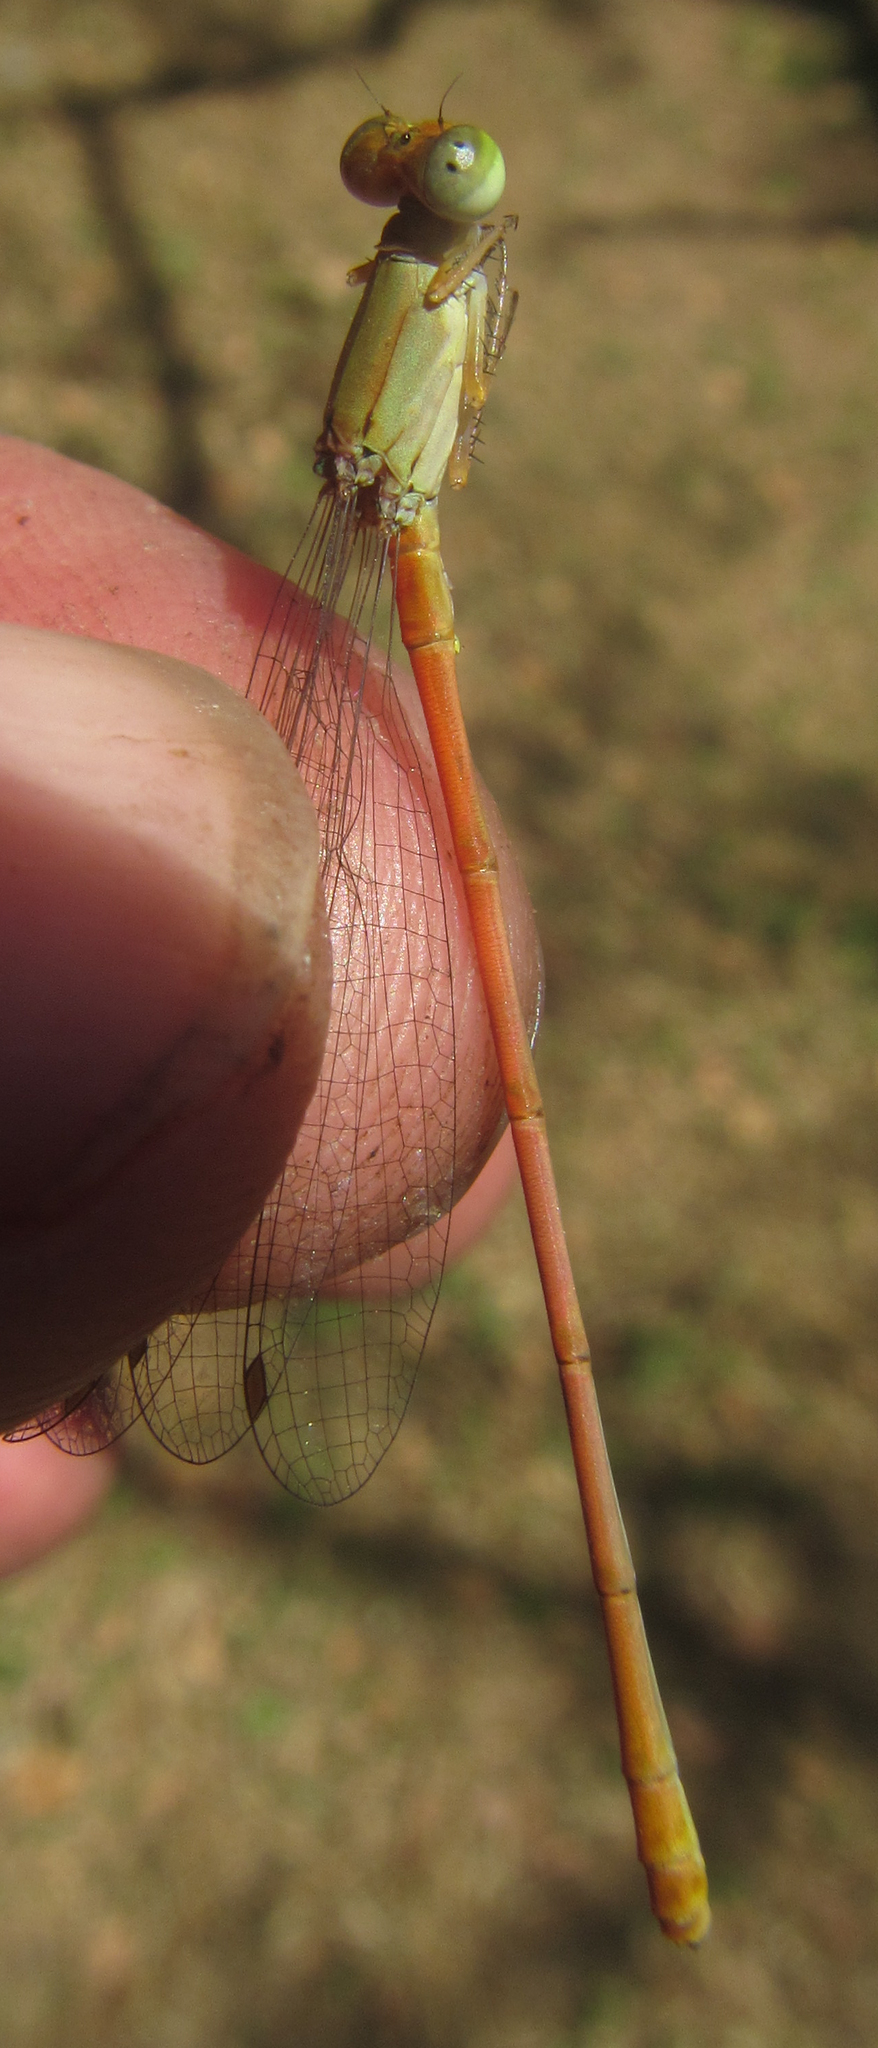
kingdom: Animalia
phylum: Arthropoda
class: Insecta
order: Odonata
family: Coenagrionidae
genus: Ceriagrion
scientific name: Ceriagrion glabrum
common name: Common pond damsel
